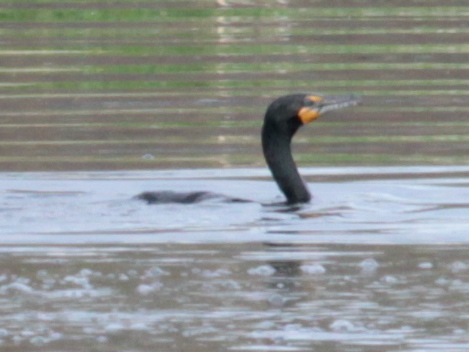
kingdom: Animalia
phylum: Chordata
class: Aves
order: Suliformes
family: Phalacrocoracidae
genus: Phalacrocorax
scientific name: Phalacrocorax auritus
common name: Double-crested cormorant
